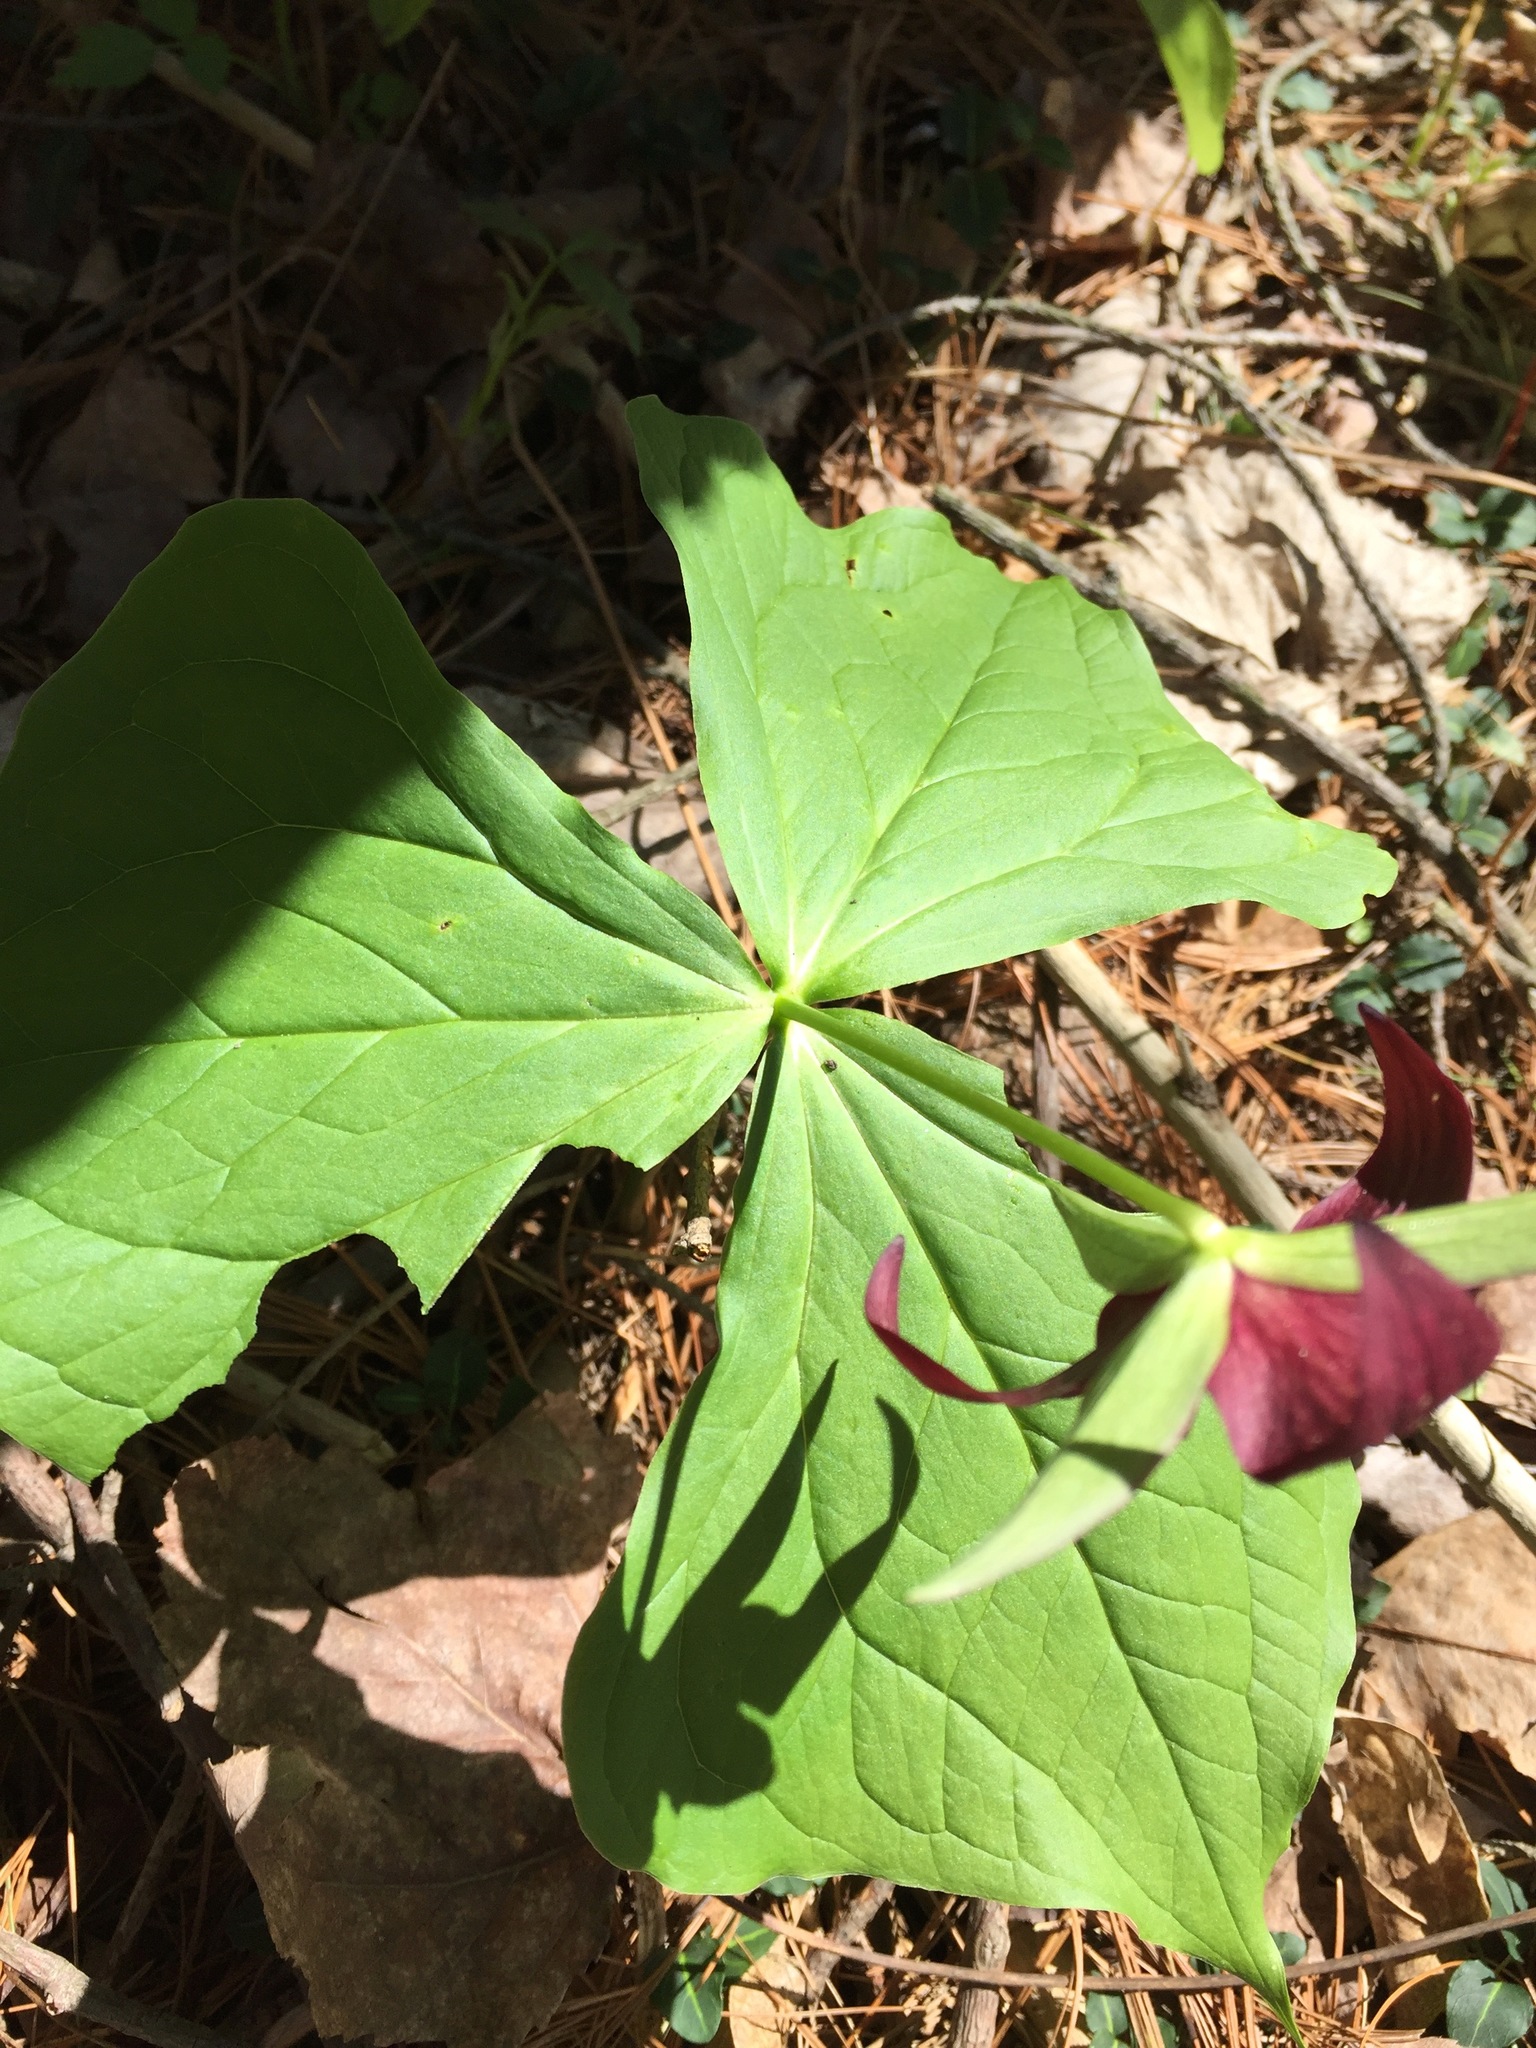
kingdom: Plantae
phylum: Tracheophyta
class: Liliopsida
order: Liliales
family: Melanthiaceae
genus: Trillium
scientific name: Trillium erectum
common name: Purple trillium
